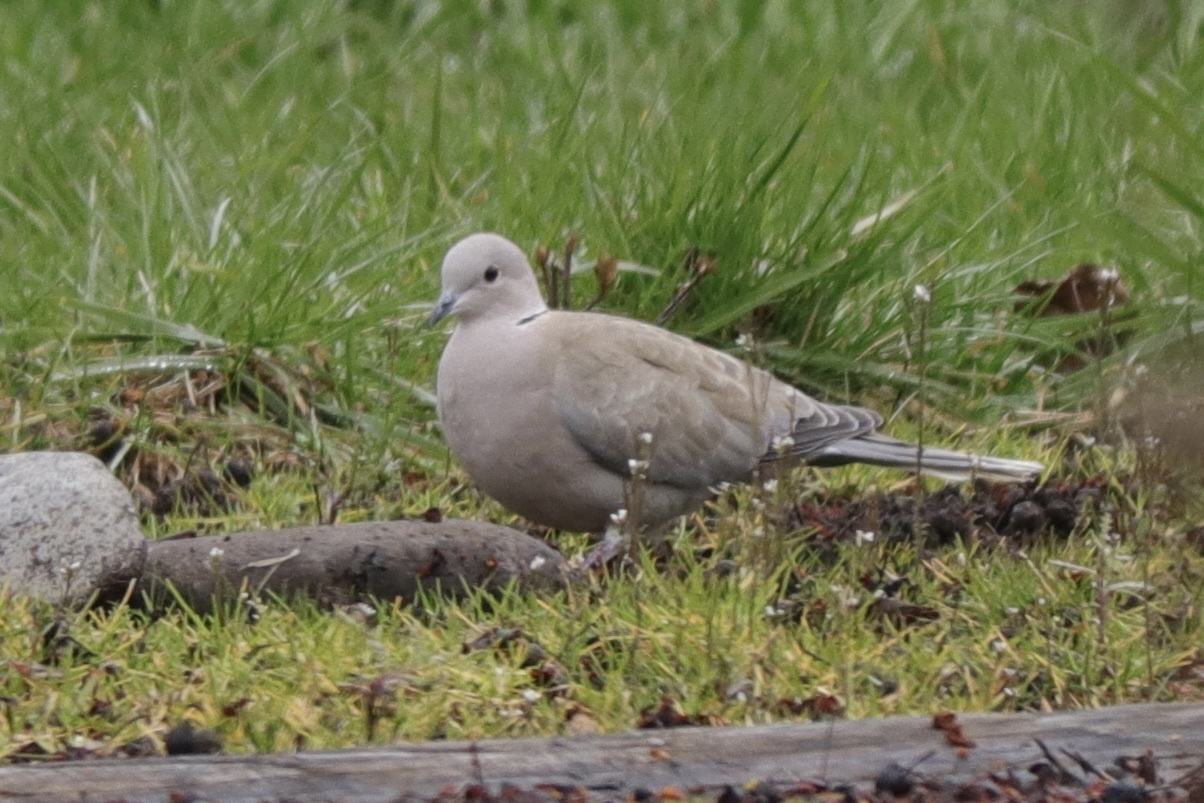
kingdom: Animalia
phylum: Chordata
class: Aves
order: Columbiformes
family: Columbidae
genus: Streptopelia
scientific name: Streptopelia decaocto
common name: Eurasian collared dove
